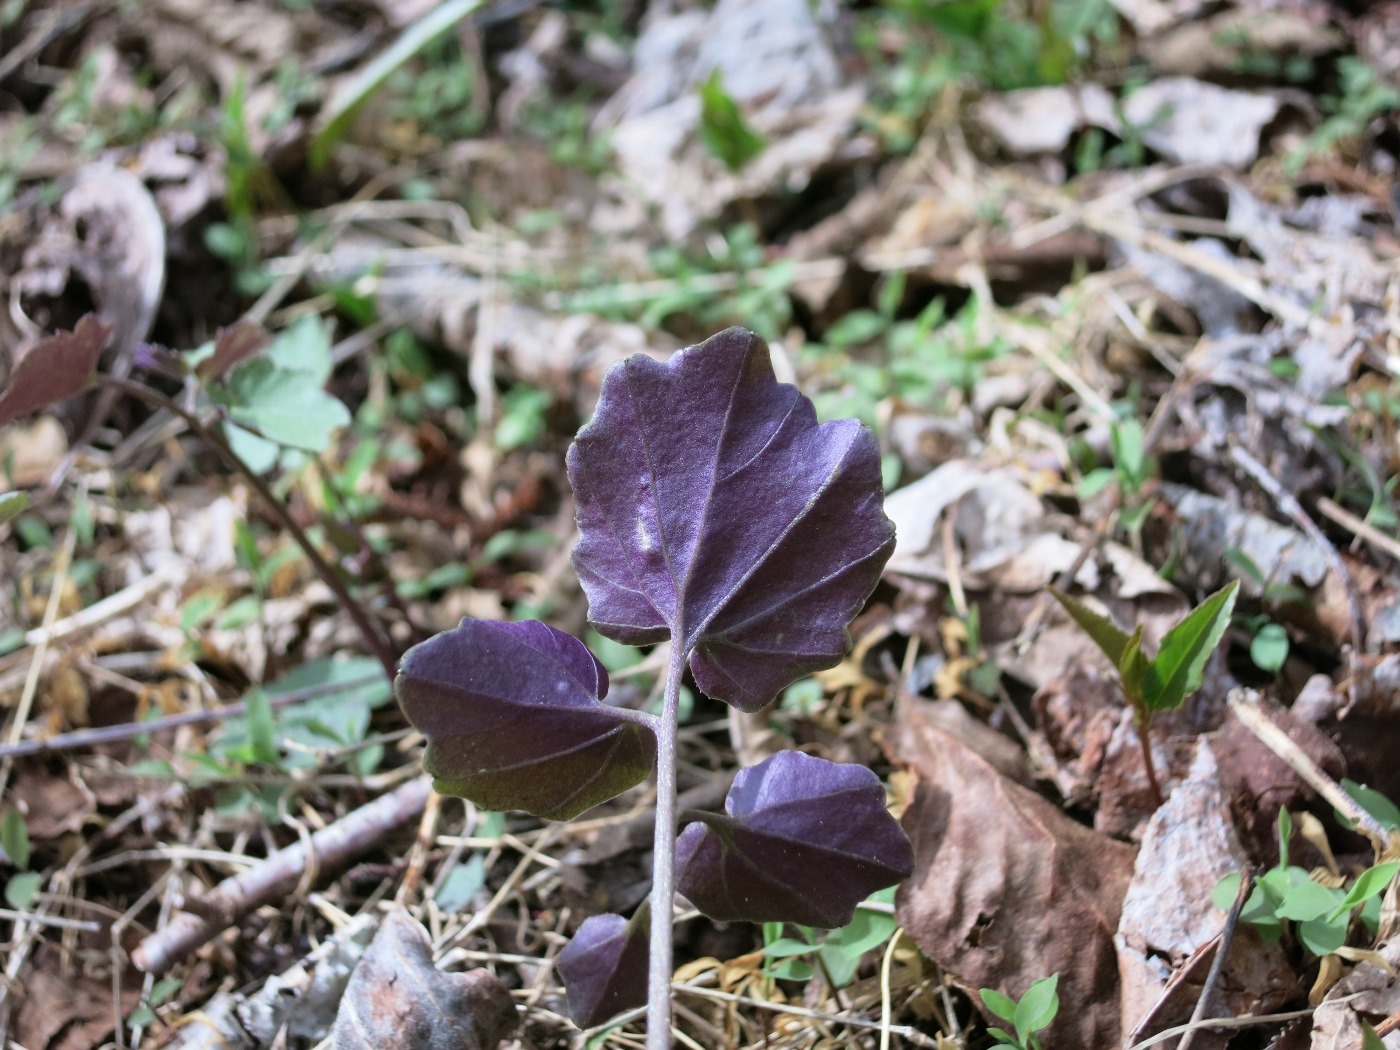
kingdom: Plantae
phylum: Tracheophyta
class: Magnoliopsida
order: Brassicales
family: Brassicaceae
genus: Cardamine
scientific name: Cardamine flagellifera
